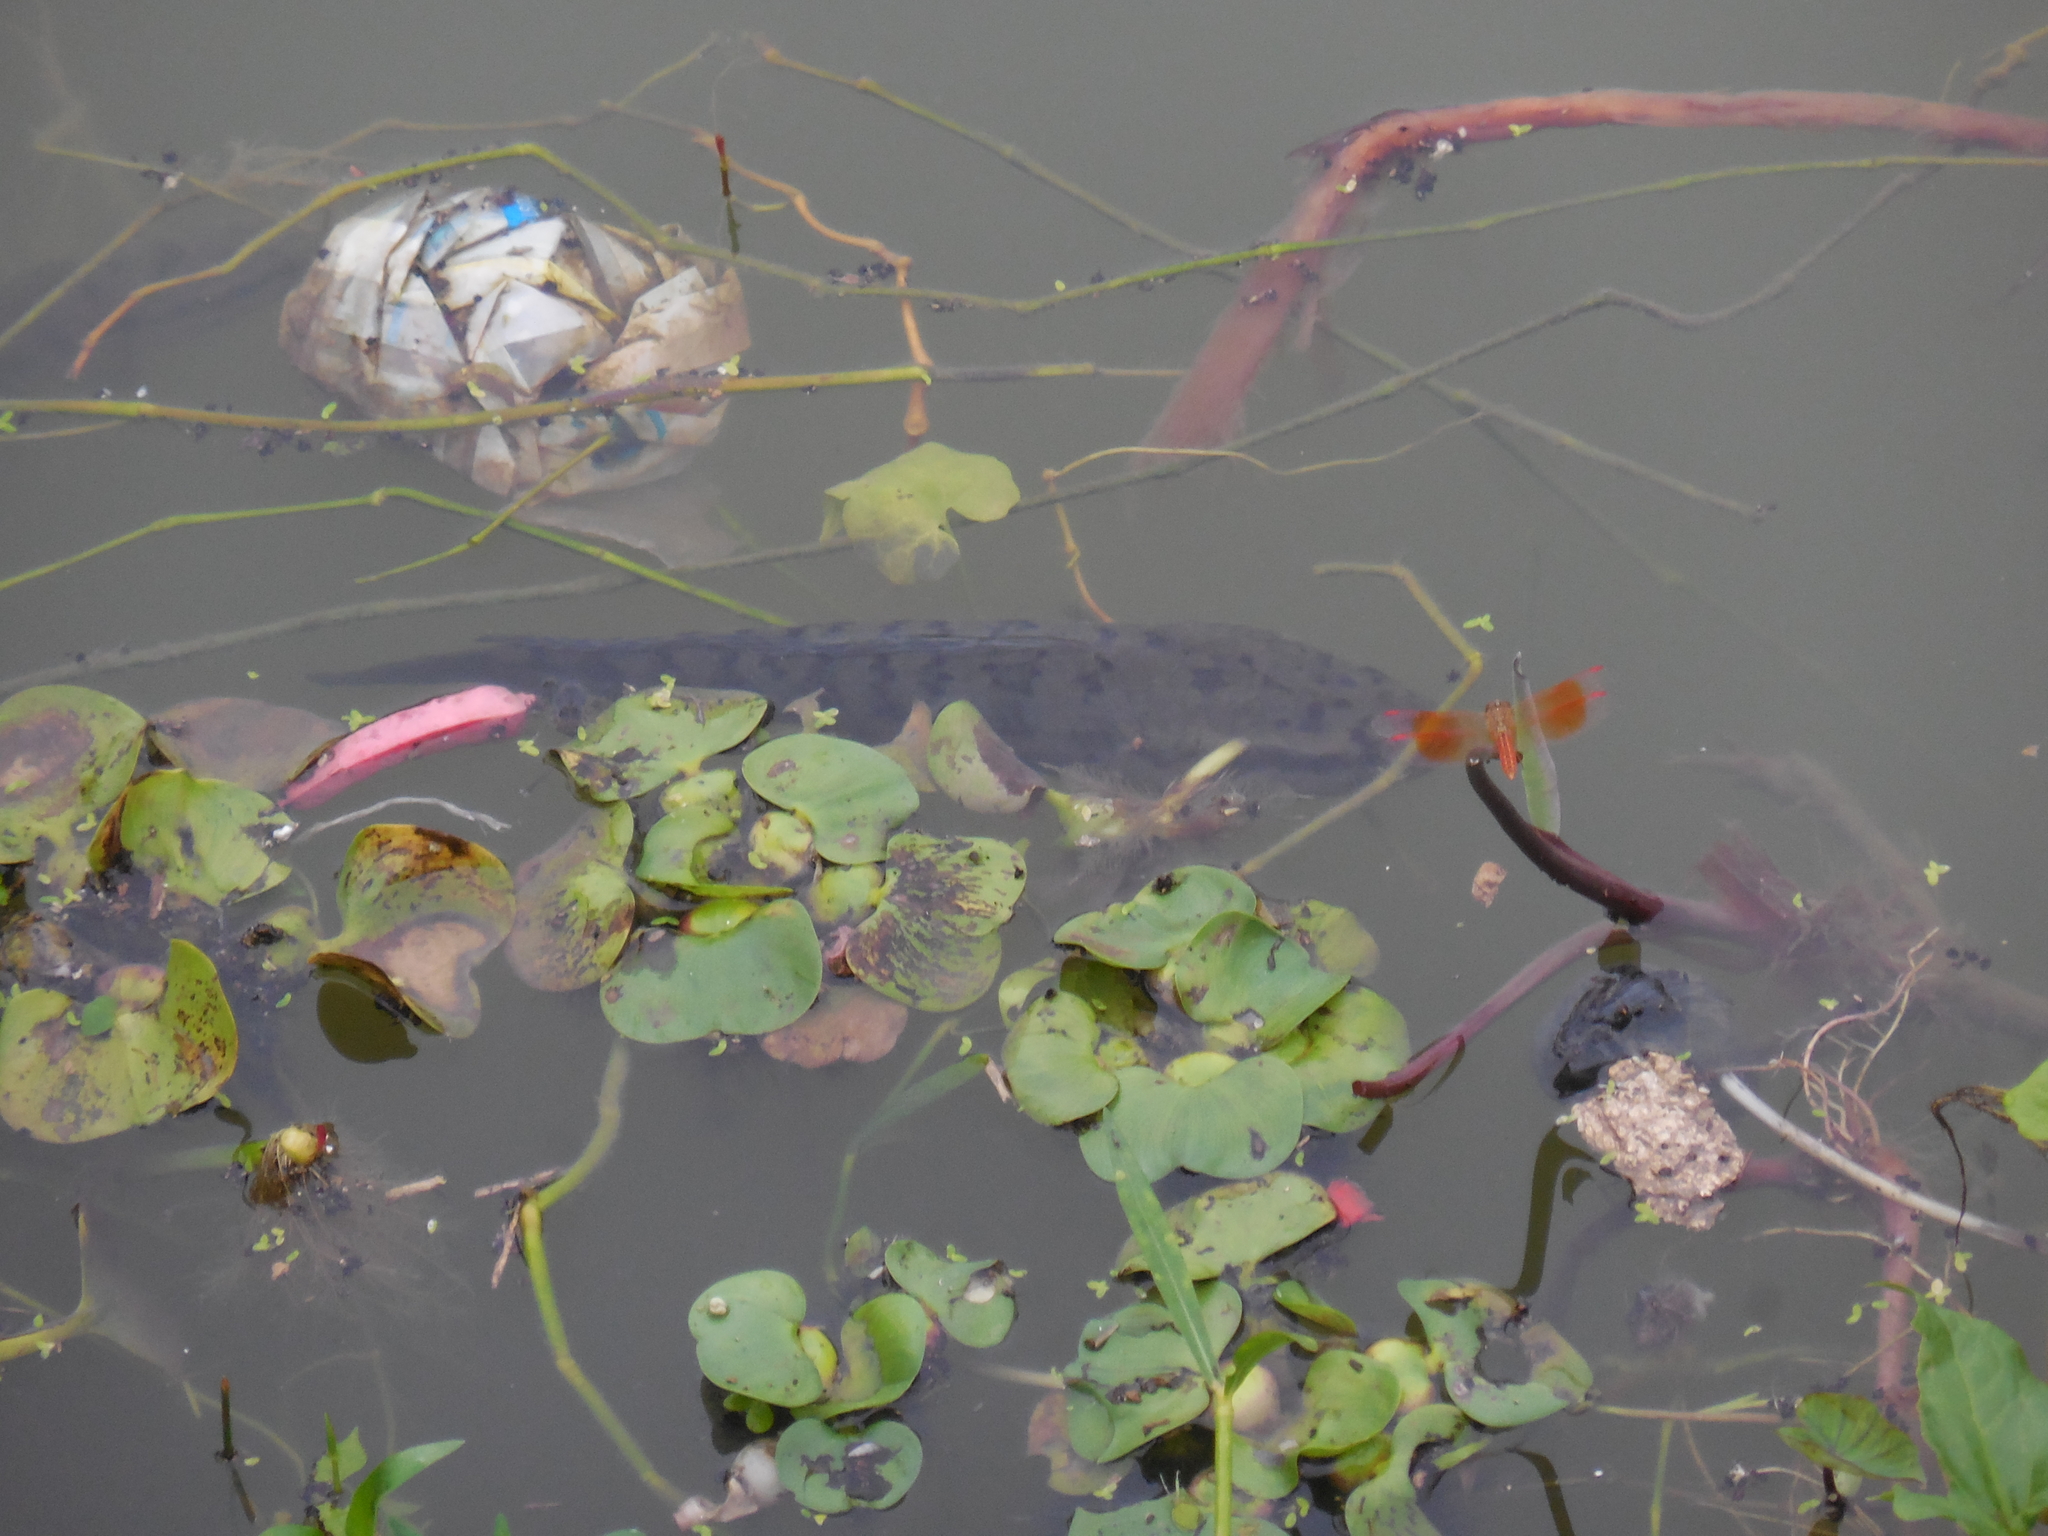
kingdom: Animalia
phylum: Chordata
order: Perciformes
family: Channidae
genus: Channa
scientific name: Channa punctata
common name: Spotted snakehead
